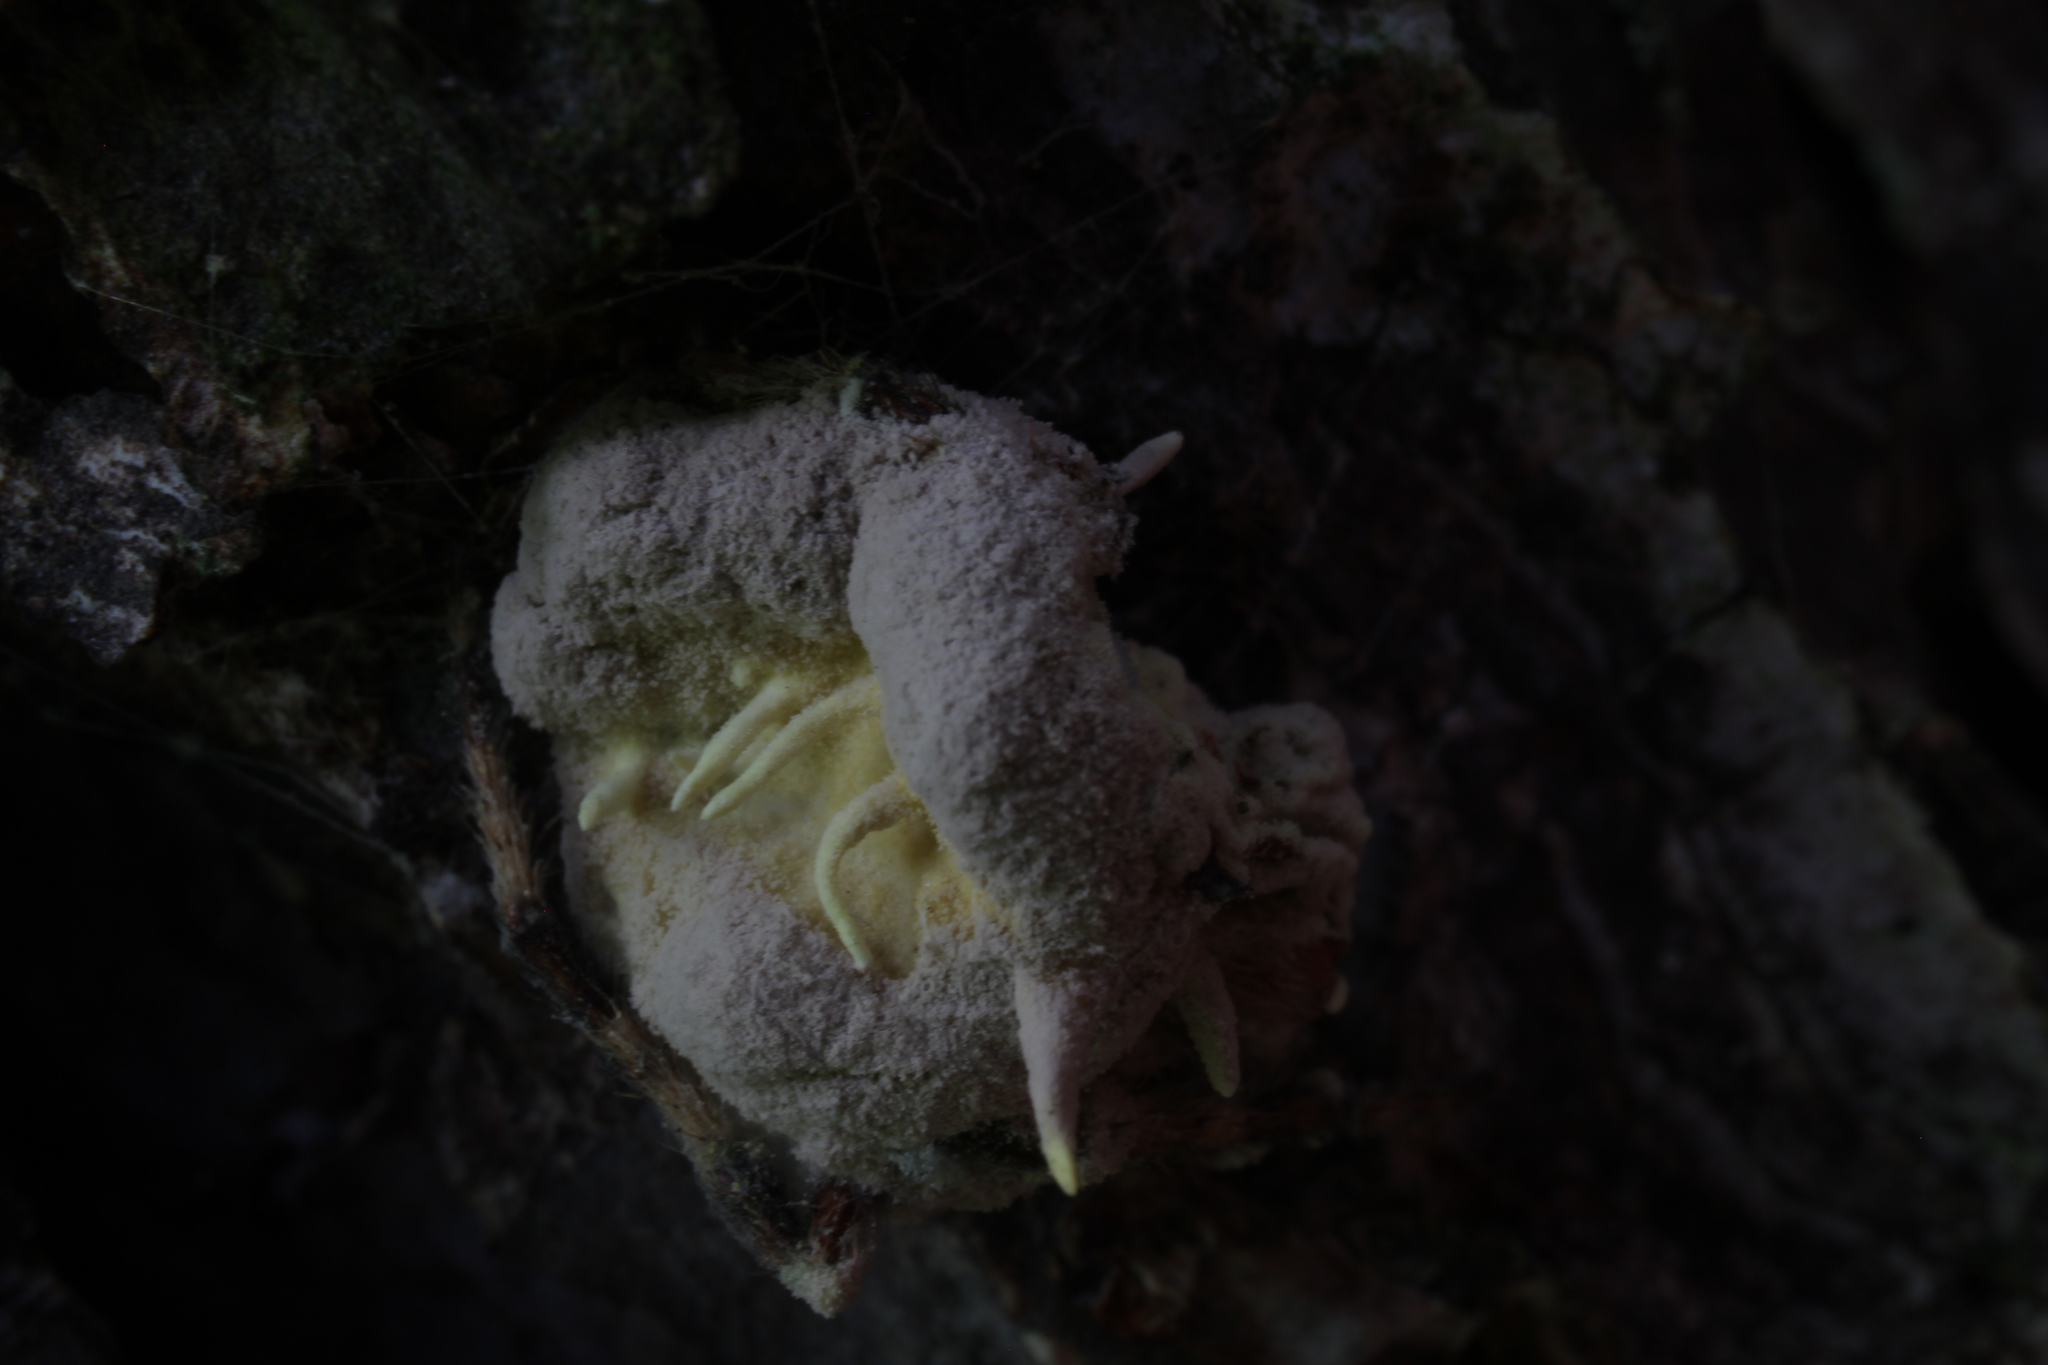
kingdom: Fungi
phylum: Ascomycota
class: Sordariomycetes
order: Hypocreales
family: Cordycipitaceae
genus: Gibellula
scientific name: Gibellula arachnophila
